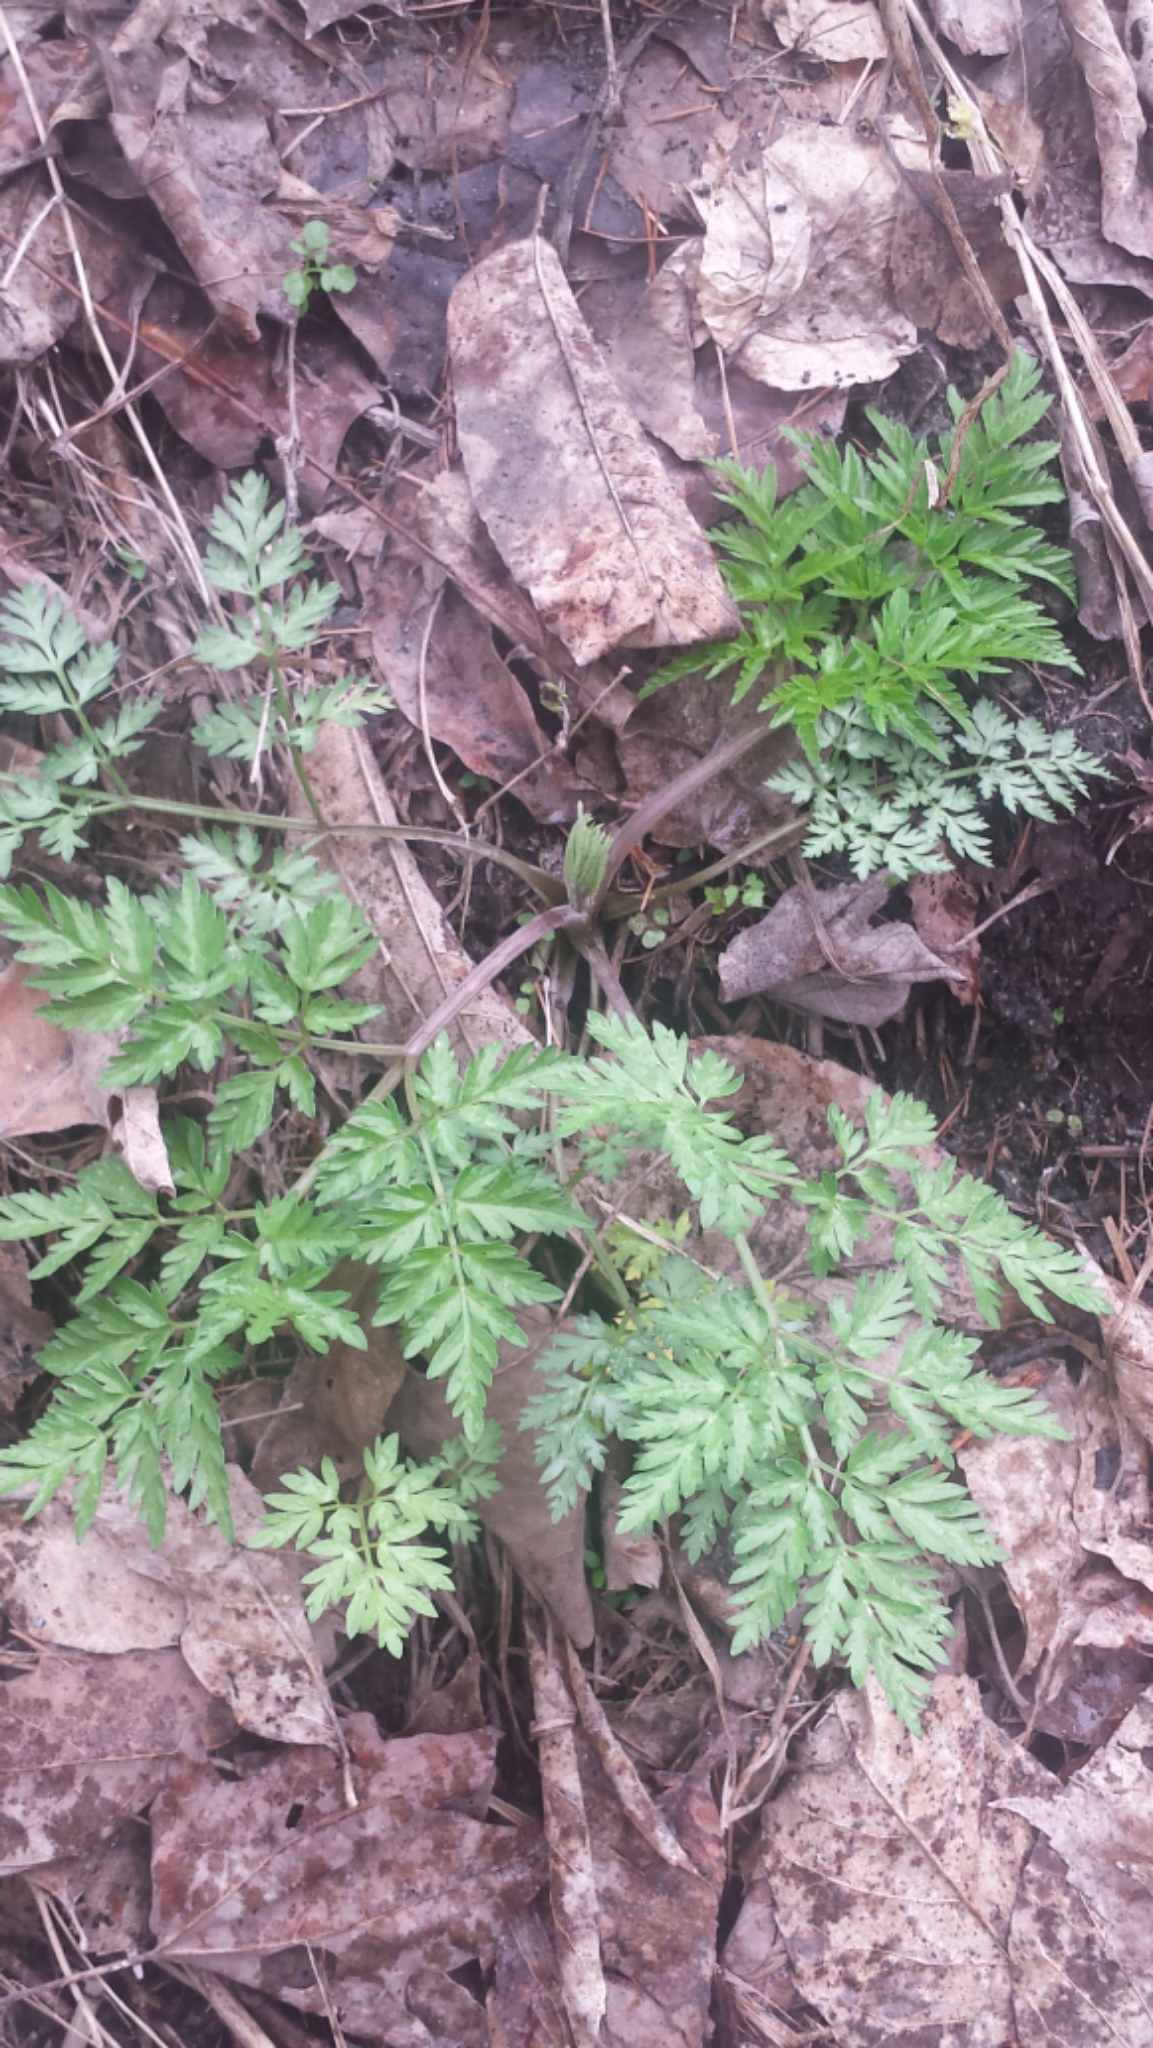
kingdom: Plantae
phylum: Tracheophyta
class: Magnoliopsida
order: Apiales
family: Apiaceae
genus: Anthriscus
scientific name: Anthriscus sylvestris
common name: Cow parsley
